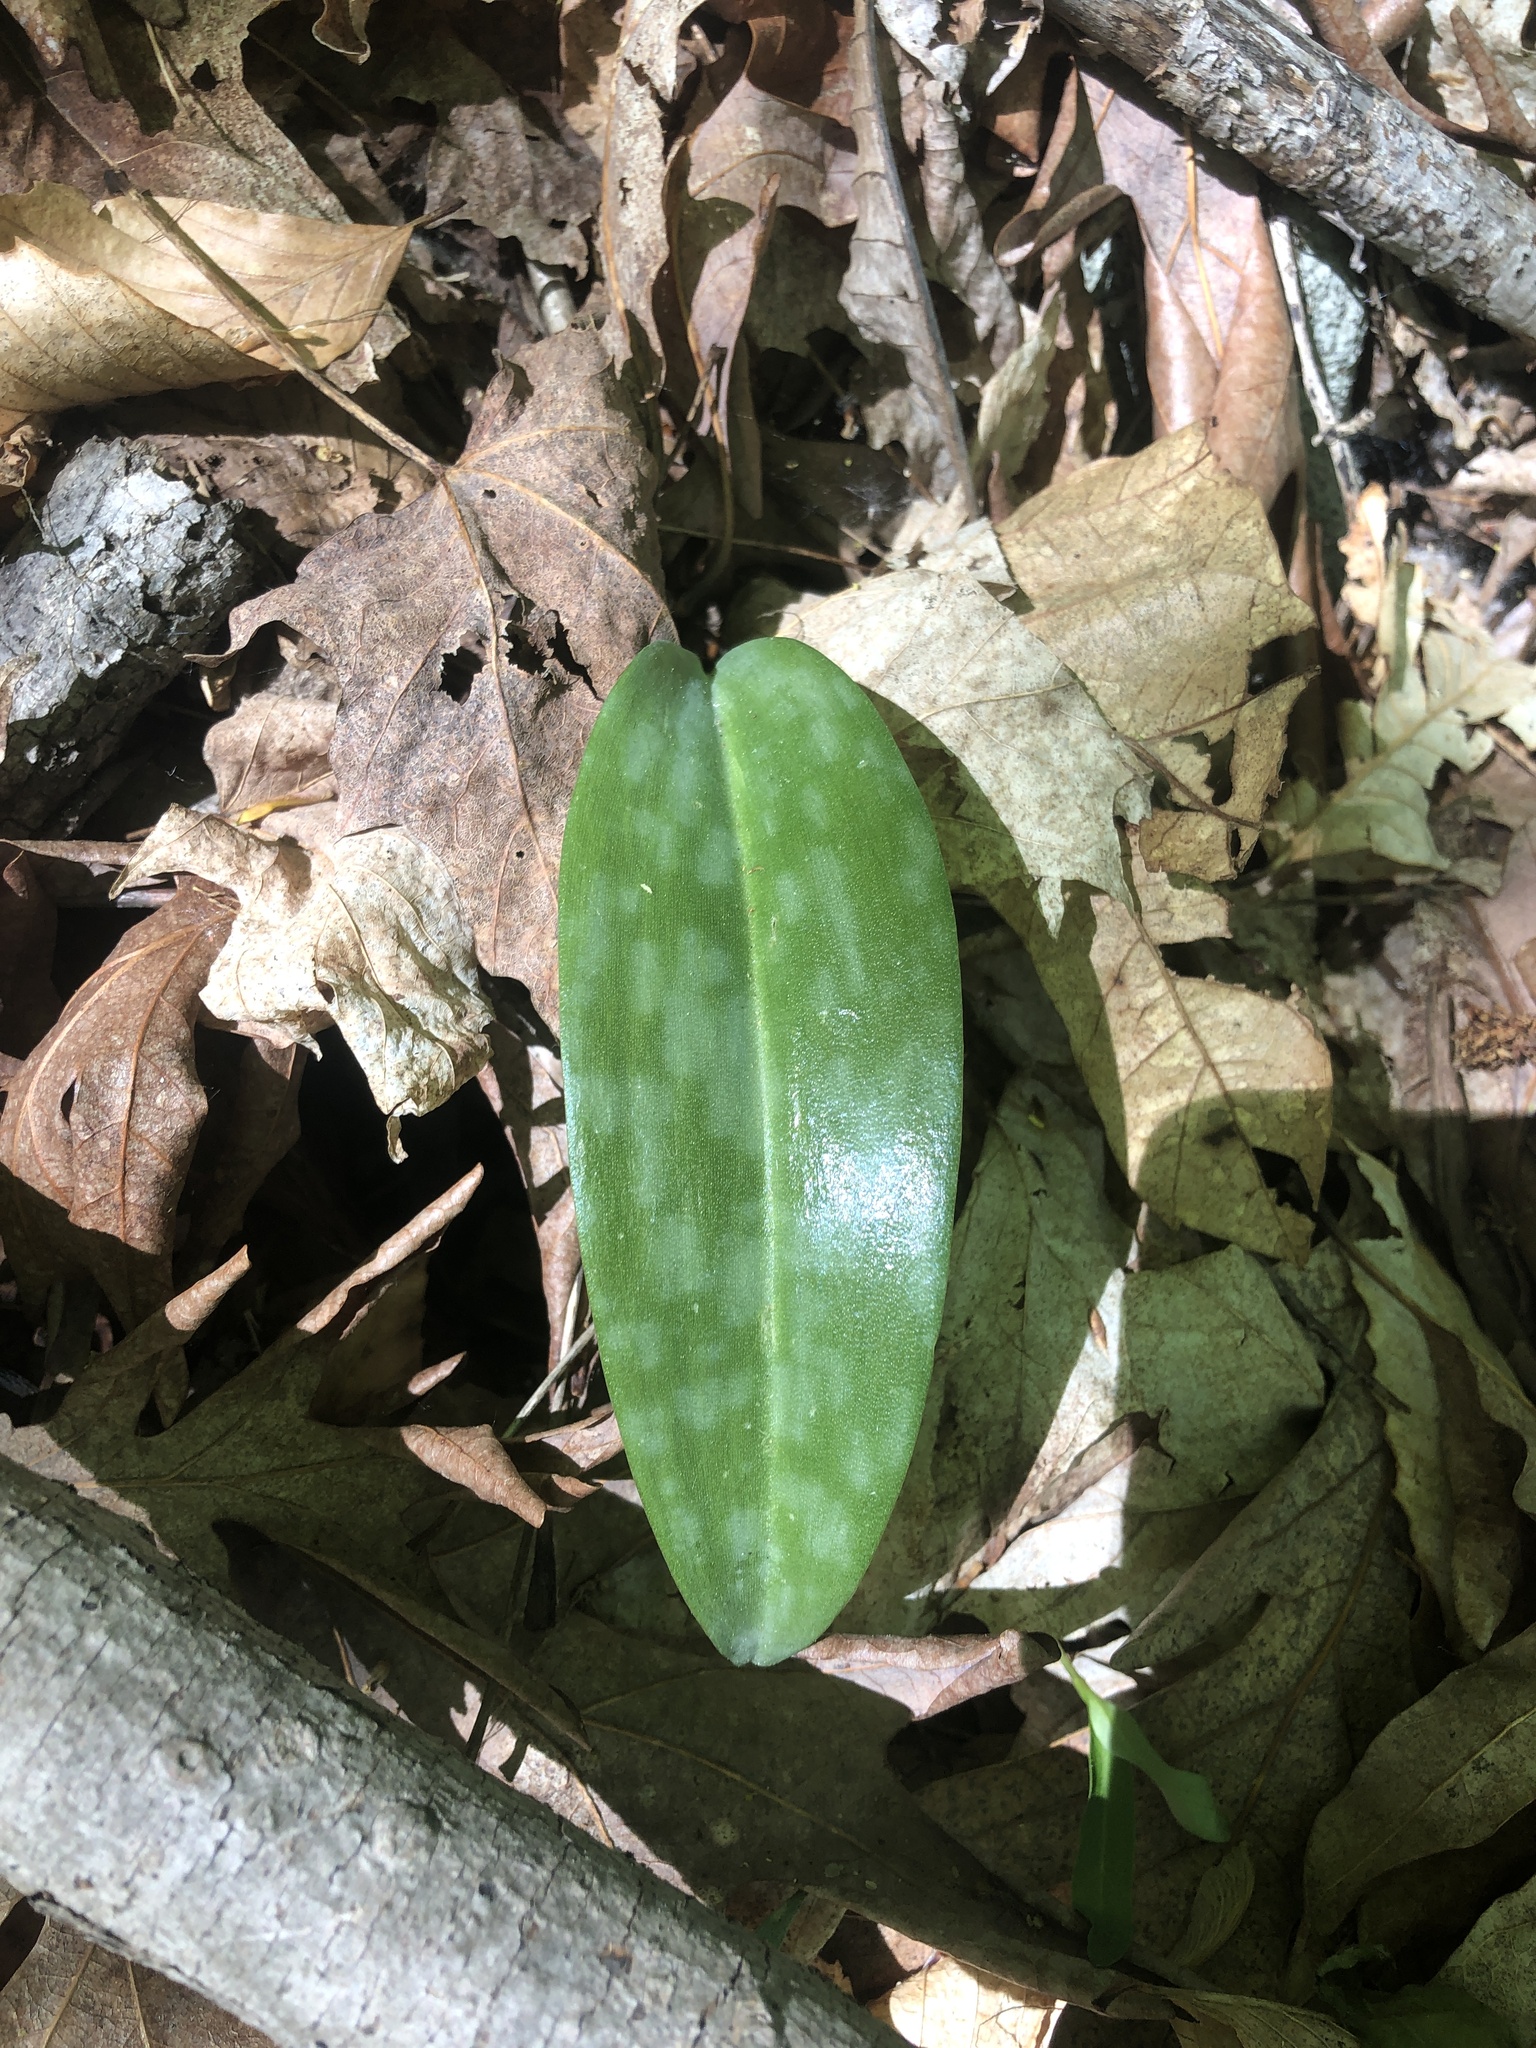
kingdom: Plantae
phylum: Tracheophyta
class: Liliopsida
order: Liliales
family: Liliaceae
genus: Erythronium
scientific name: Erythronium americanum
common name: Yellow adder's-tongue
